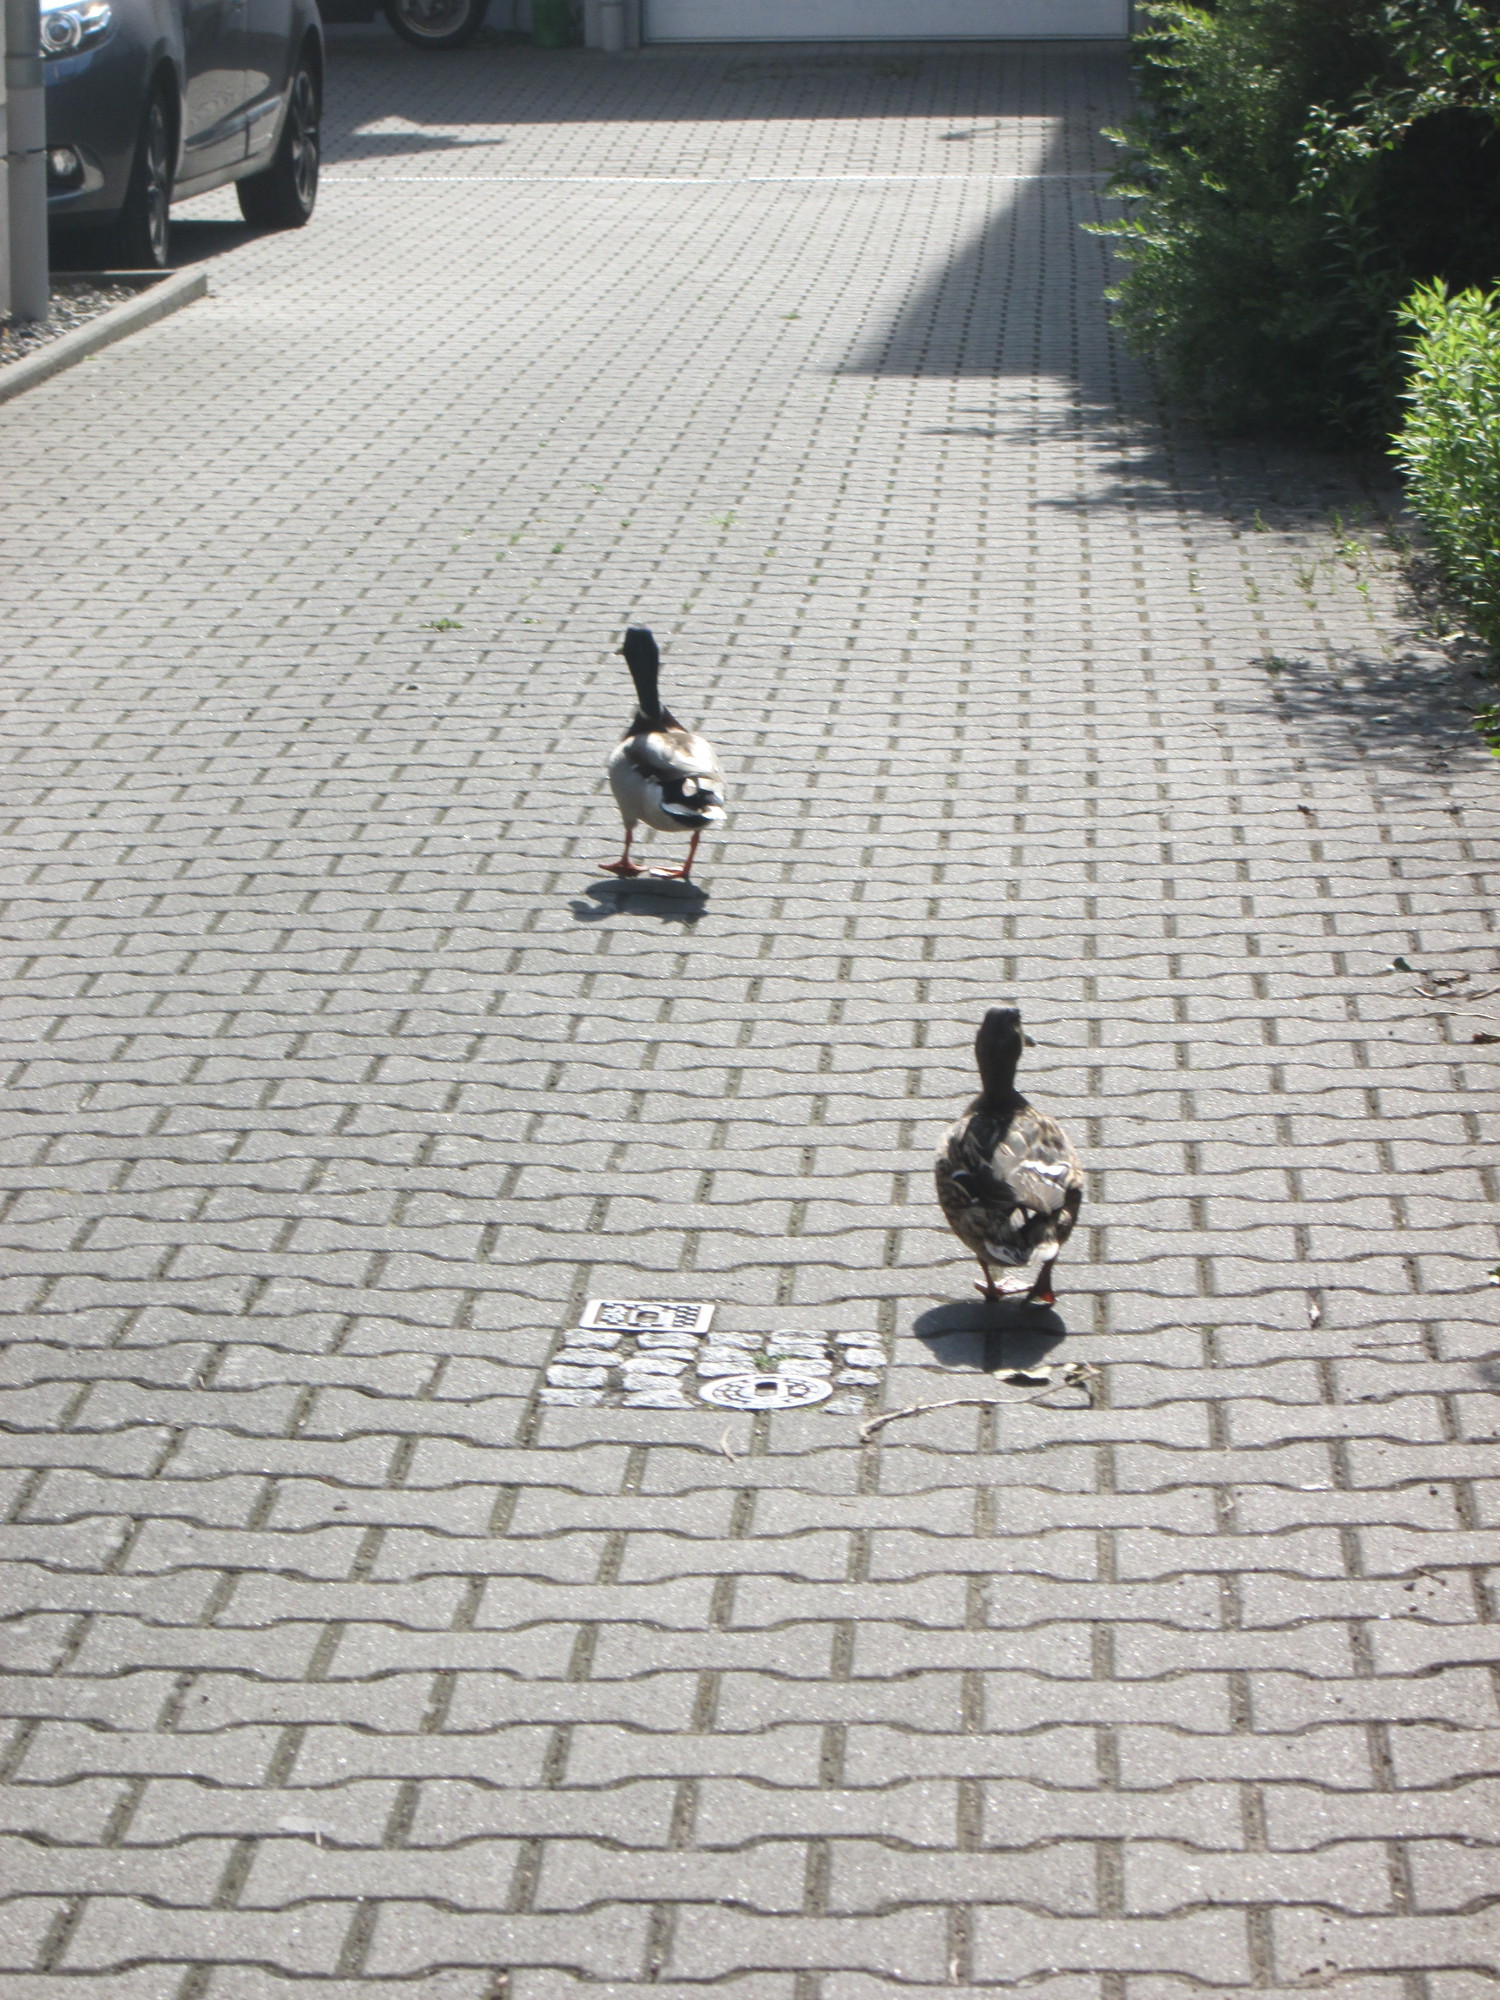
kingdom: Animalia
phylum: Chordata
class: Aves
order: Anseriformes
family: Anatidae
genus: Anas
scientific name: Anas platyrhynchos
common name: Mallard
